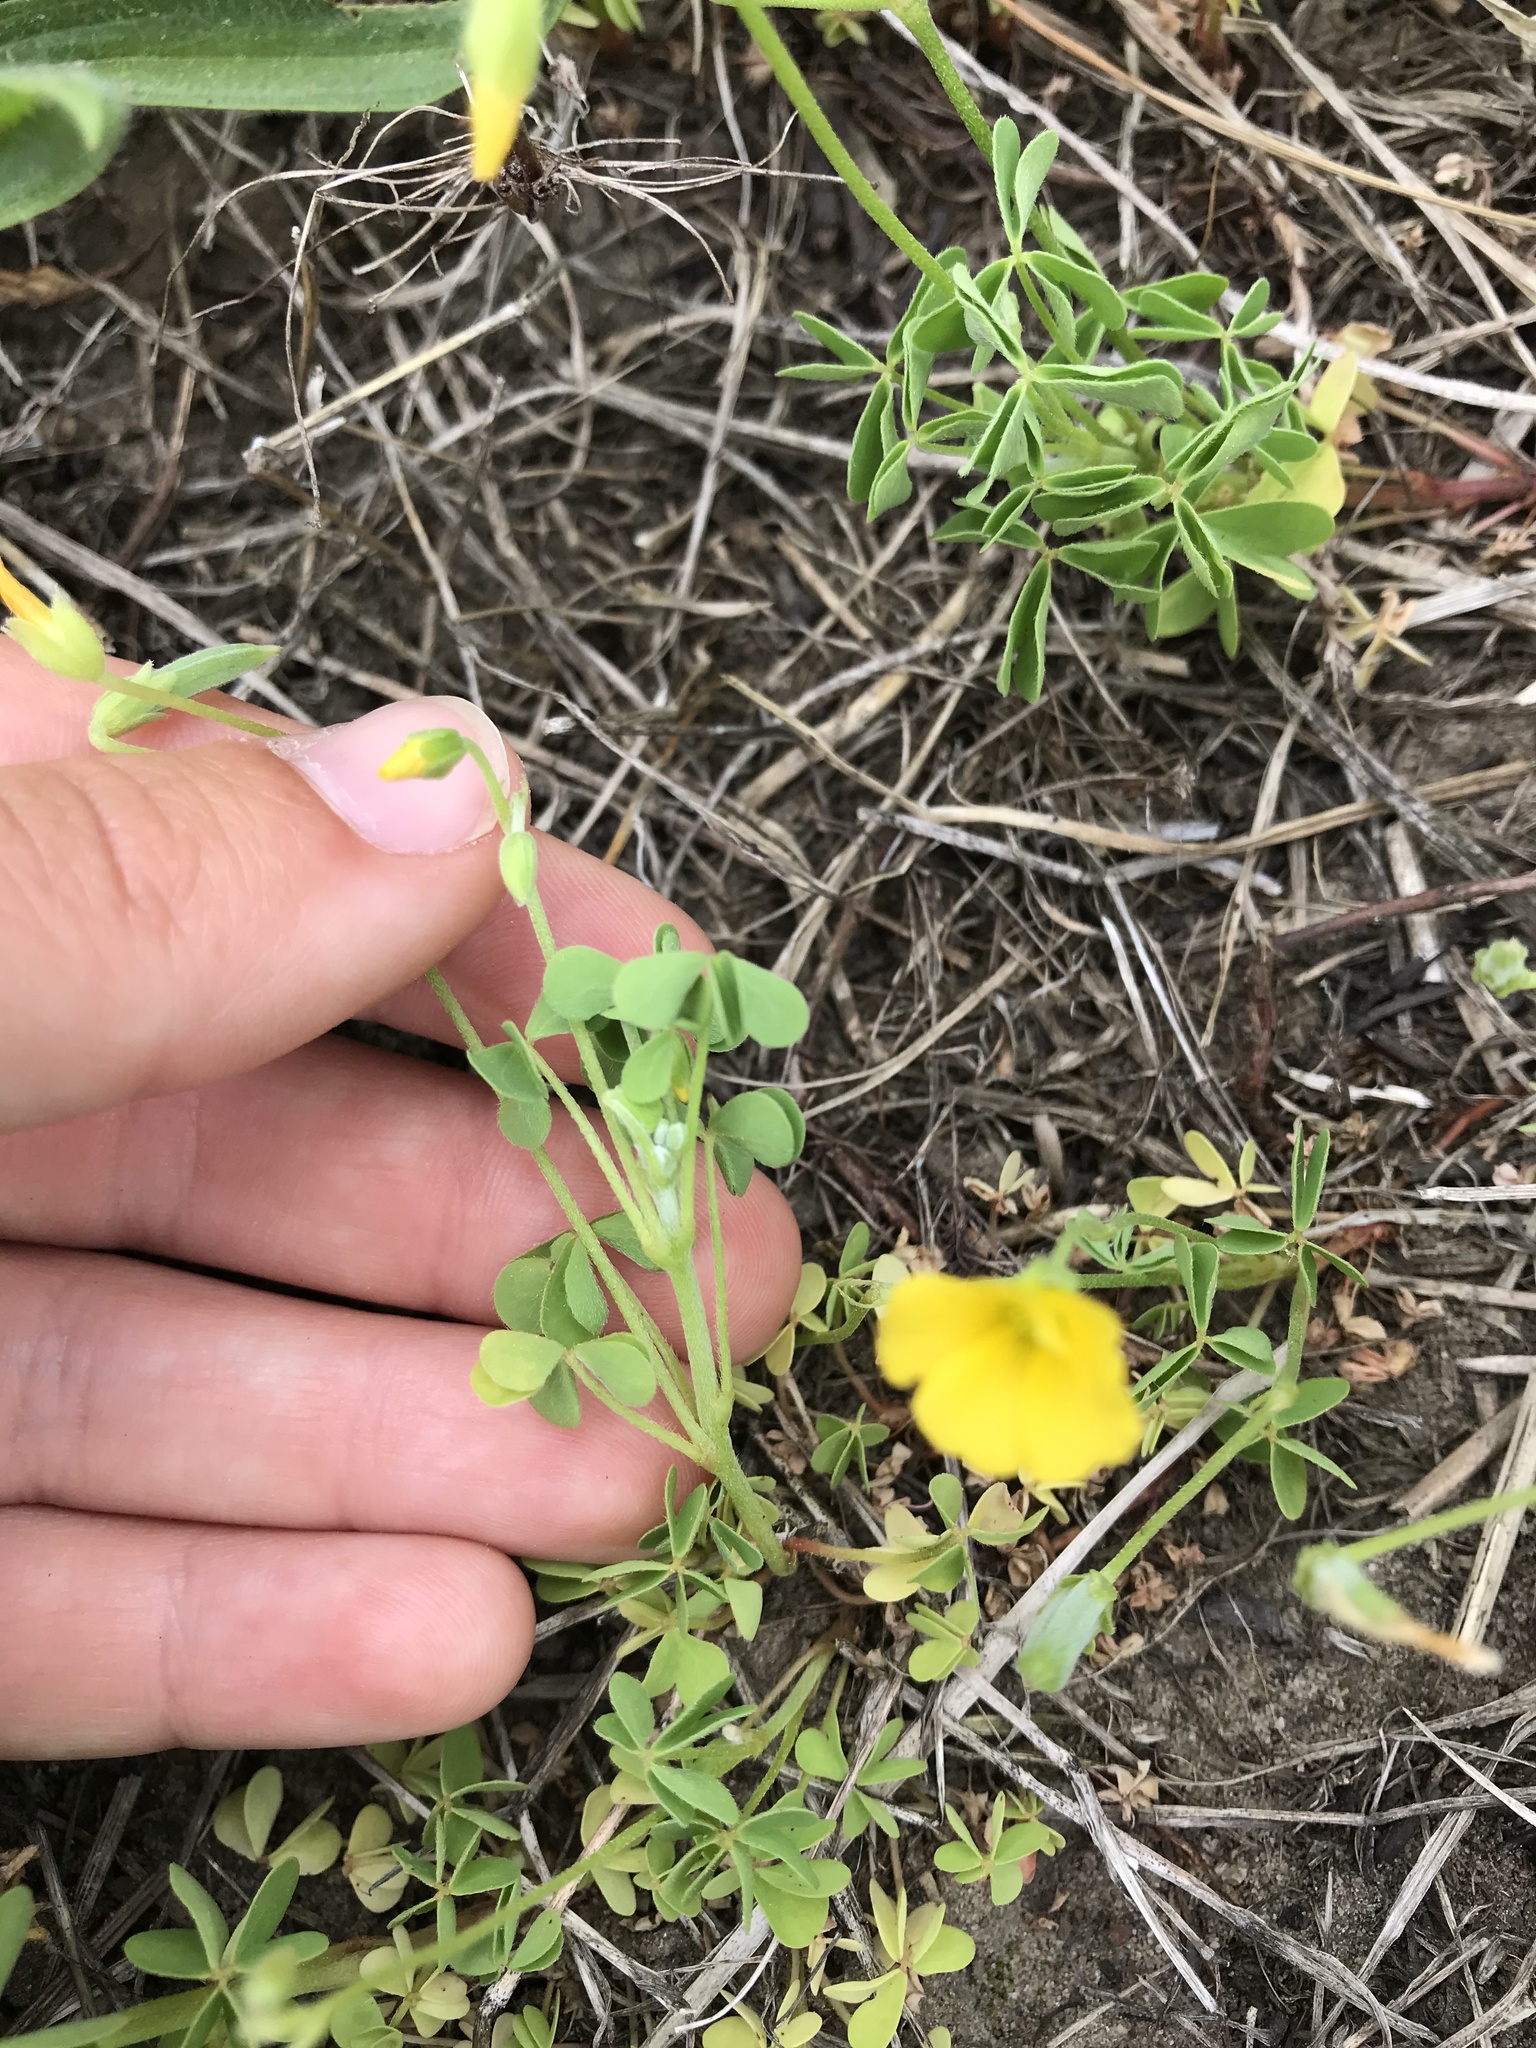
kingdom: Plantae
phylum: Tracheophyta
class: Magnoliopsida
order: Oxalidales
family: Oxalidaceae
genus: Oxalis
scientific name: Oxalis dillenii
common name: Sussex yellow-sorrel
